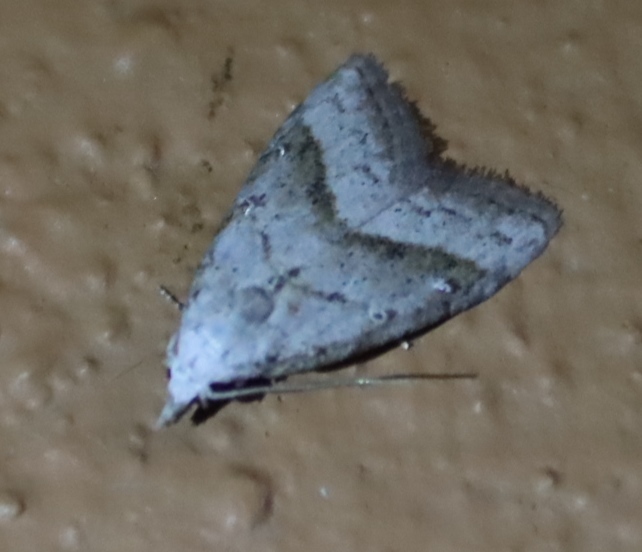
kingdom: Animalia
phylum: Arthropoda
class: Insecta
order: Lepidoptera
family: Nolidae
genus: Nola
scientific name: Nola tineoides
